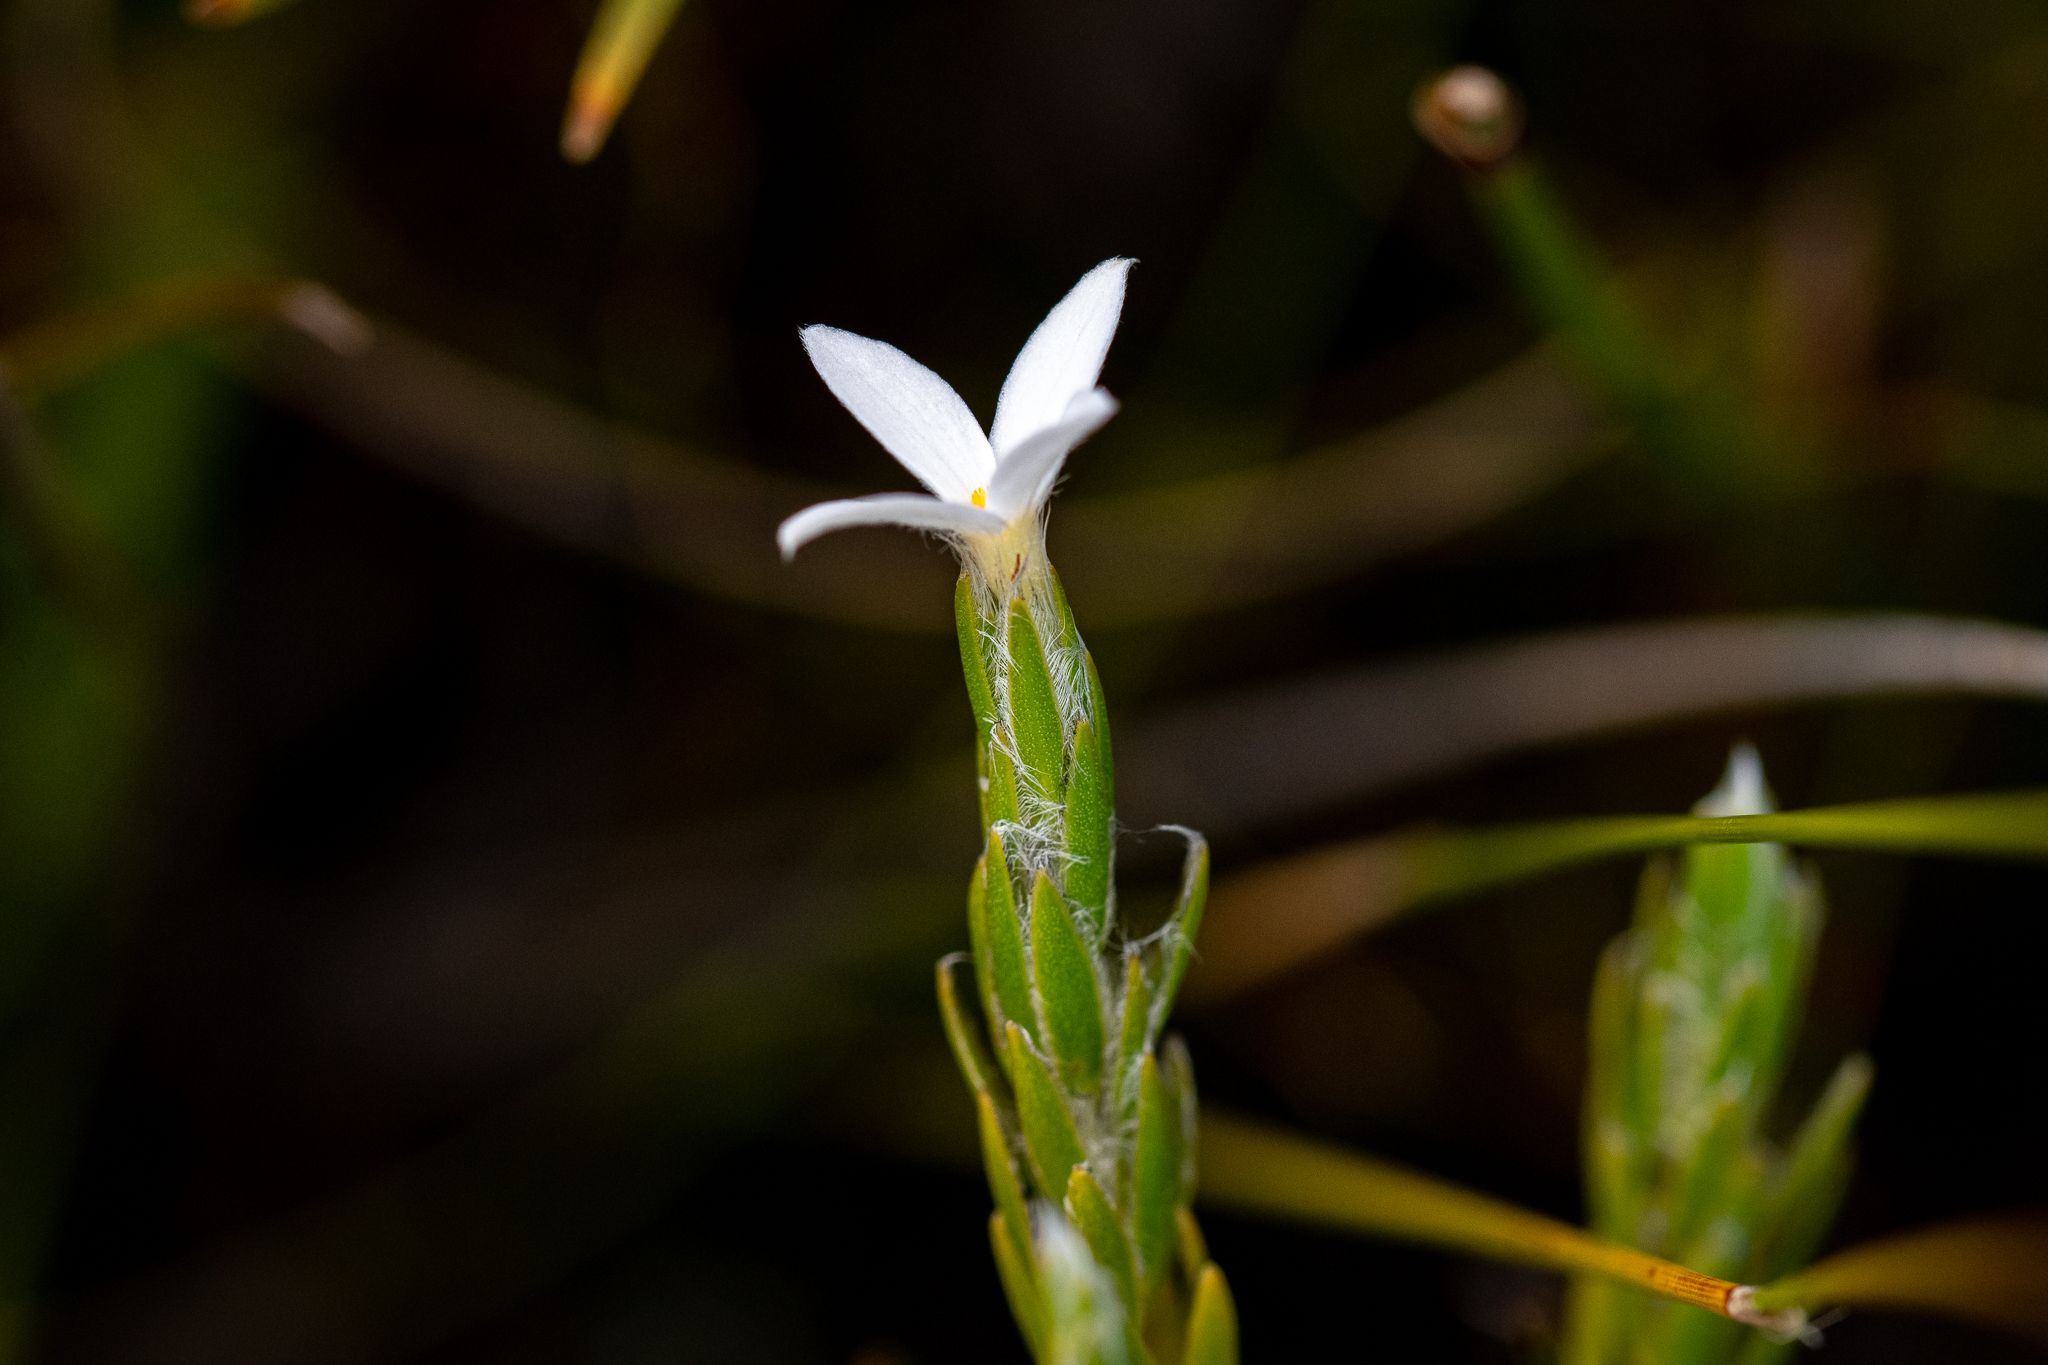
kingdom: Plantae
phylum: Tracheophyta
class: Magnoliopsida
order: Malvales
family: Thymelaeaceae
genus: Gnidia
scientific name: Gnidia penicillata
